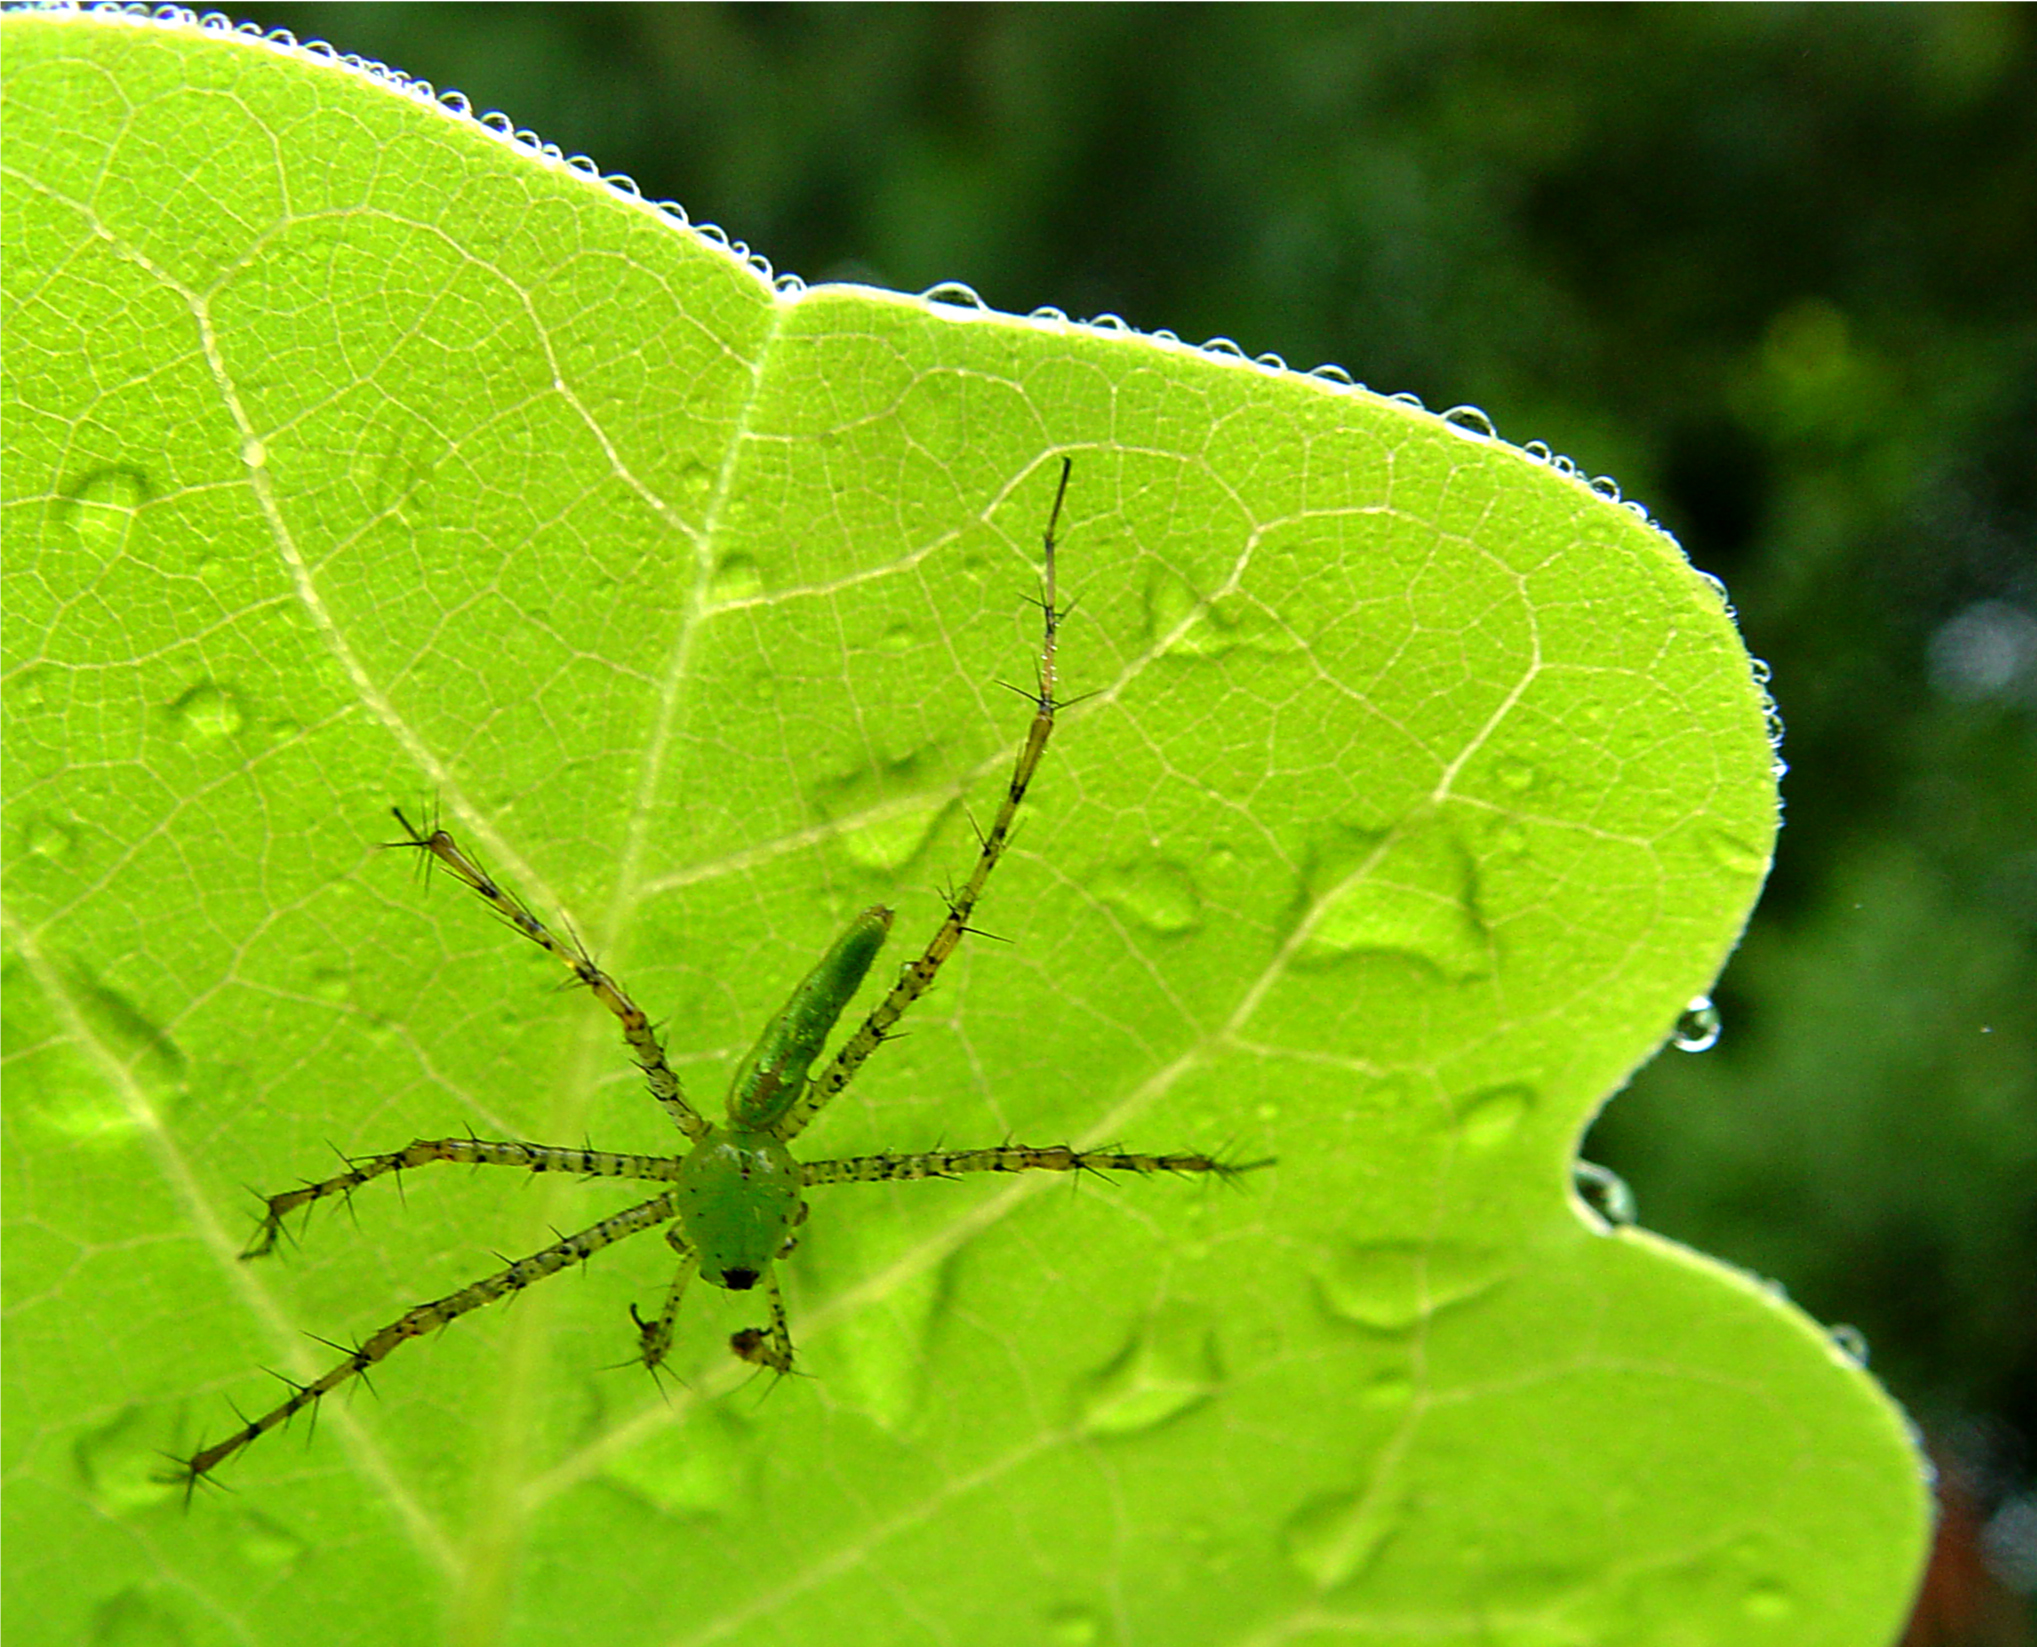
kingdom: Animalia
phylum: Arthropoda
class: Arachnida
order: Araneae
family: Oxyopidae
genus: Peucetia
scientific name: Peucetia viridans
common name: Lynx spiders
